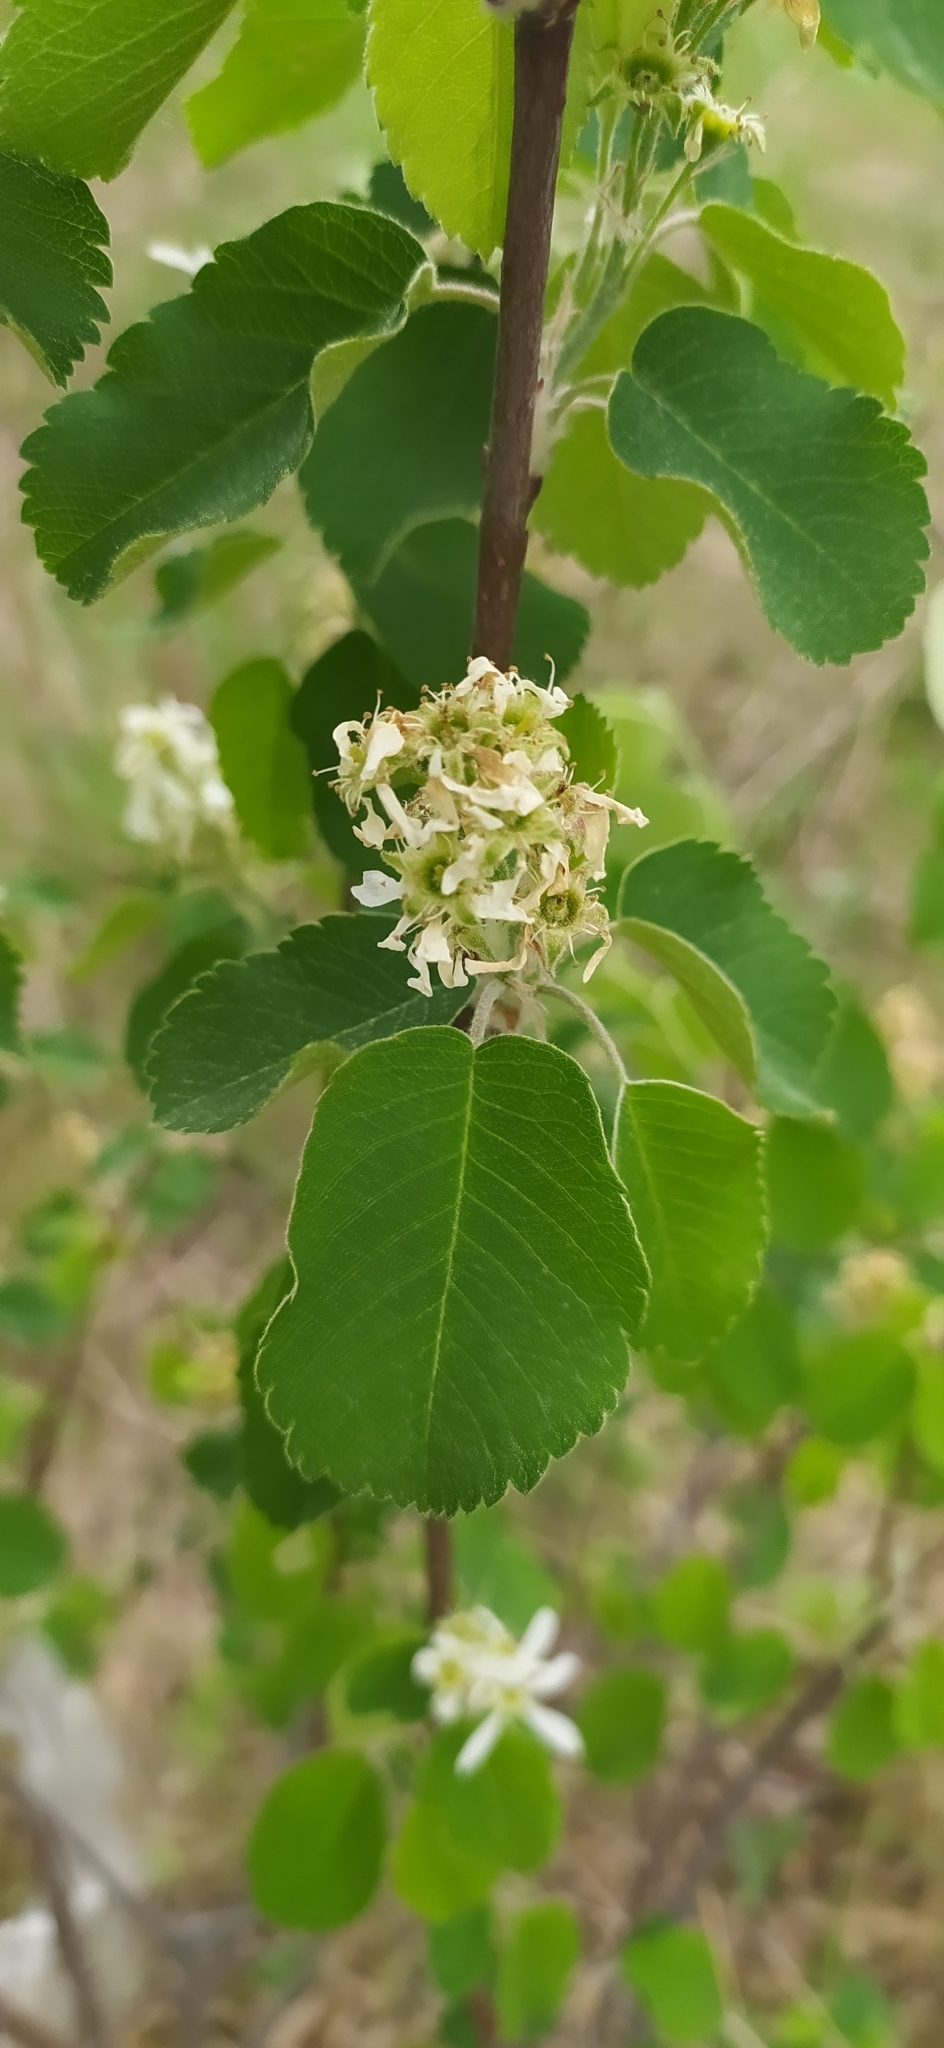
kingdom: Plantae
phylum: Tracheophyta
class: Magnoliopsida
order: Rosales
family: Rosaceae
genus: Amelanchier
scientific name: Amelanchier alnifolia
